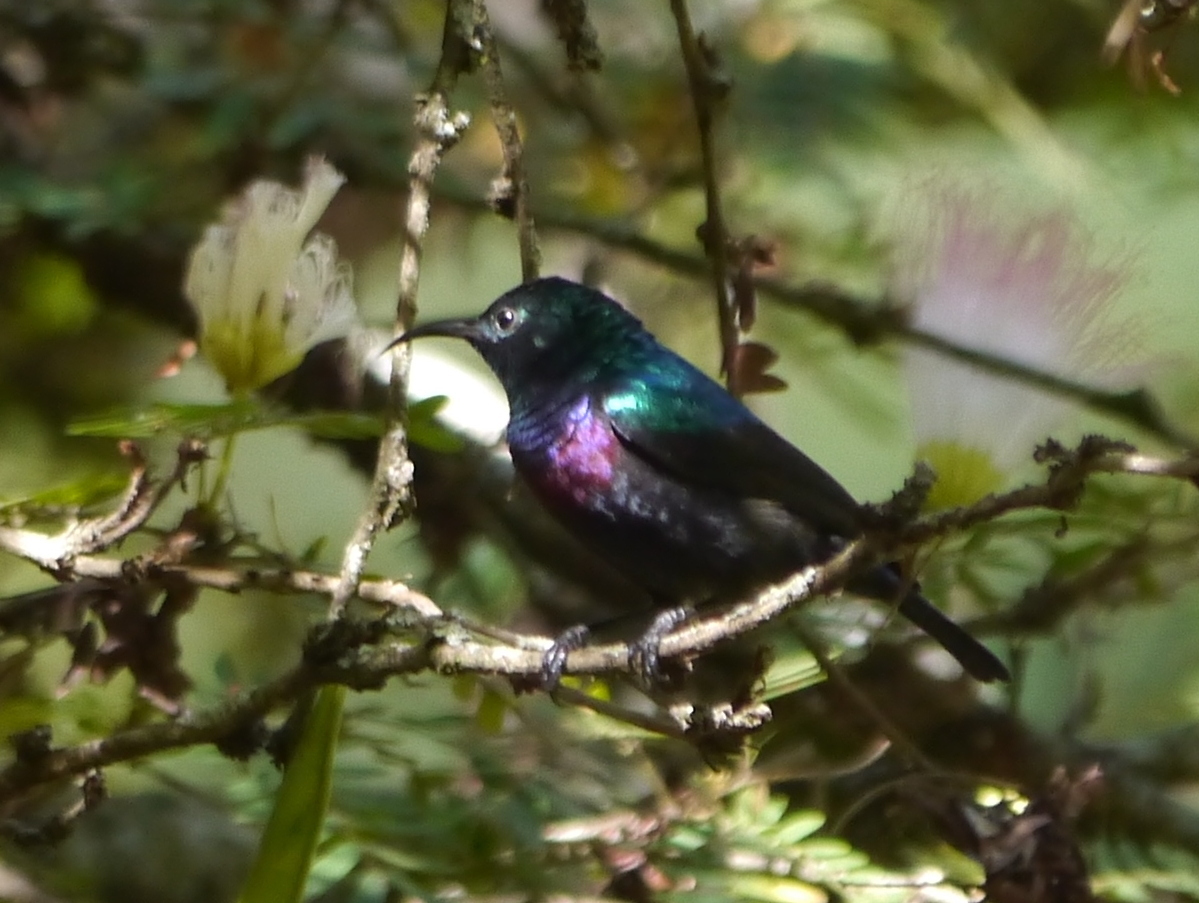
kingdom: Animalia
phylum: Chordata
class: Aves
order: Passeriformes
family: Nectariniidae
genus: Cinnyris
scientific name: Cinnyris bifasciatus
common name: Purple-banded sunbird
